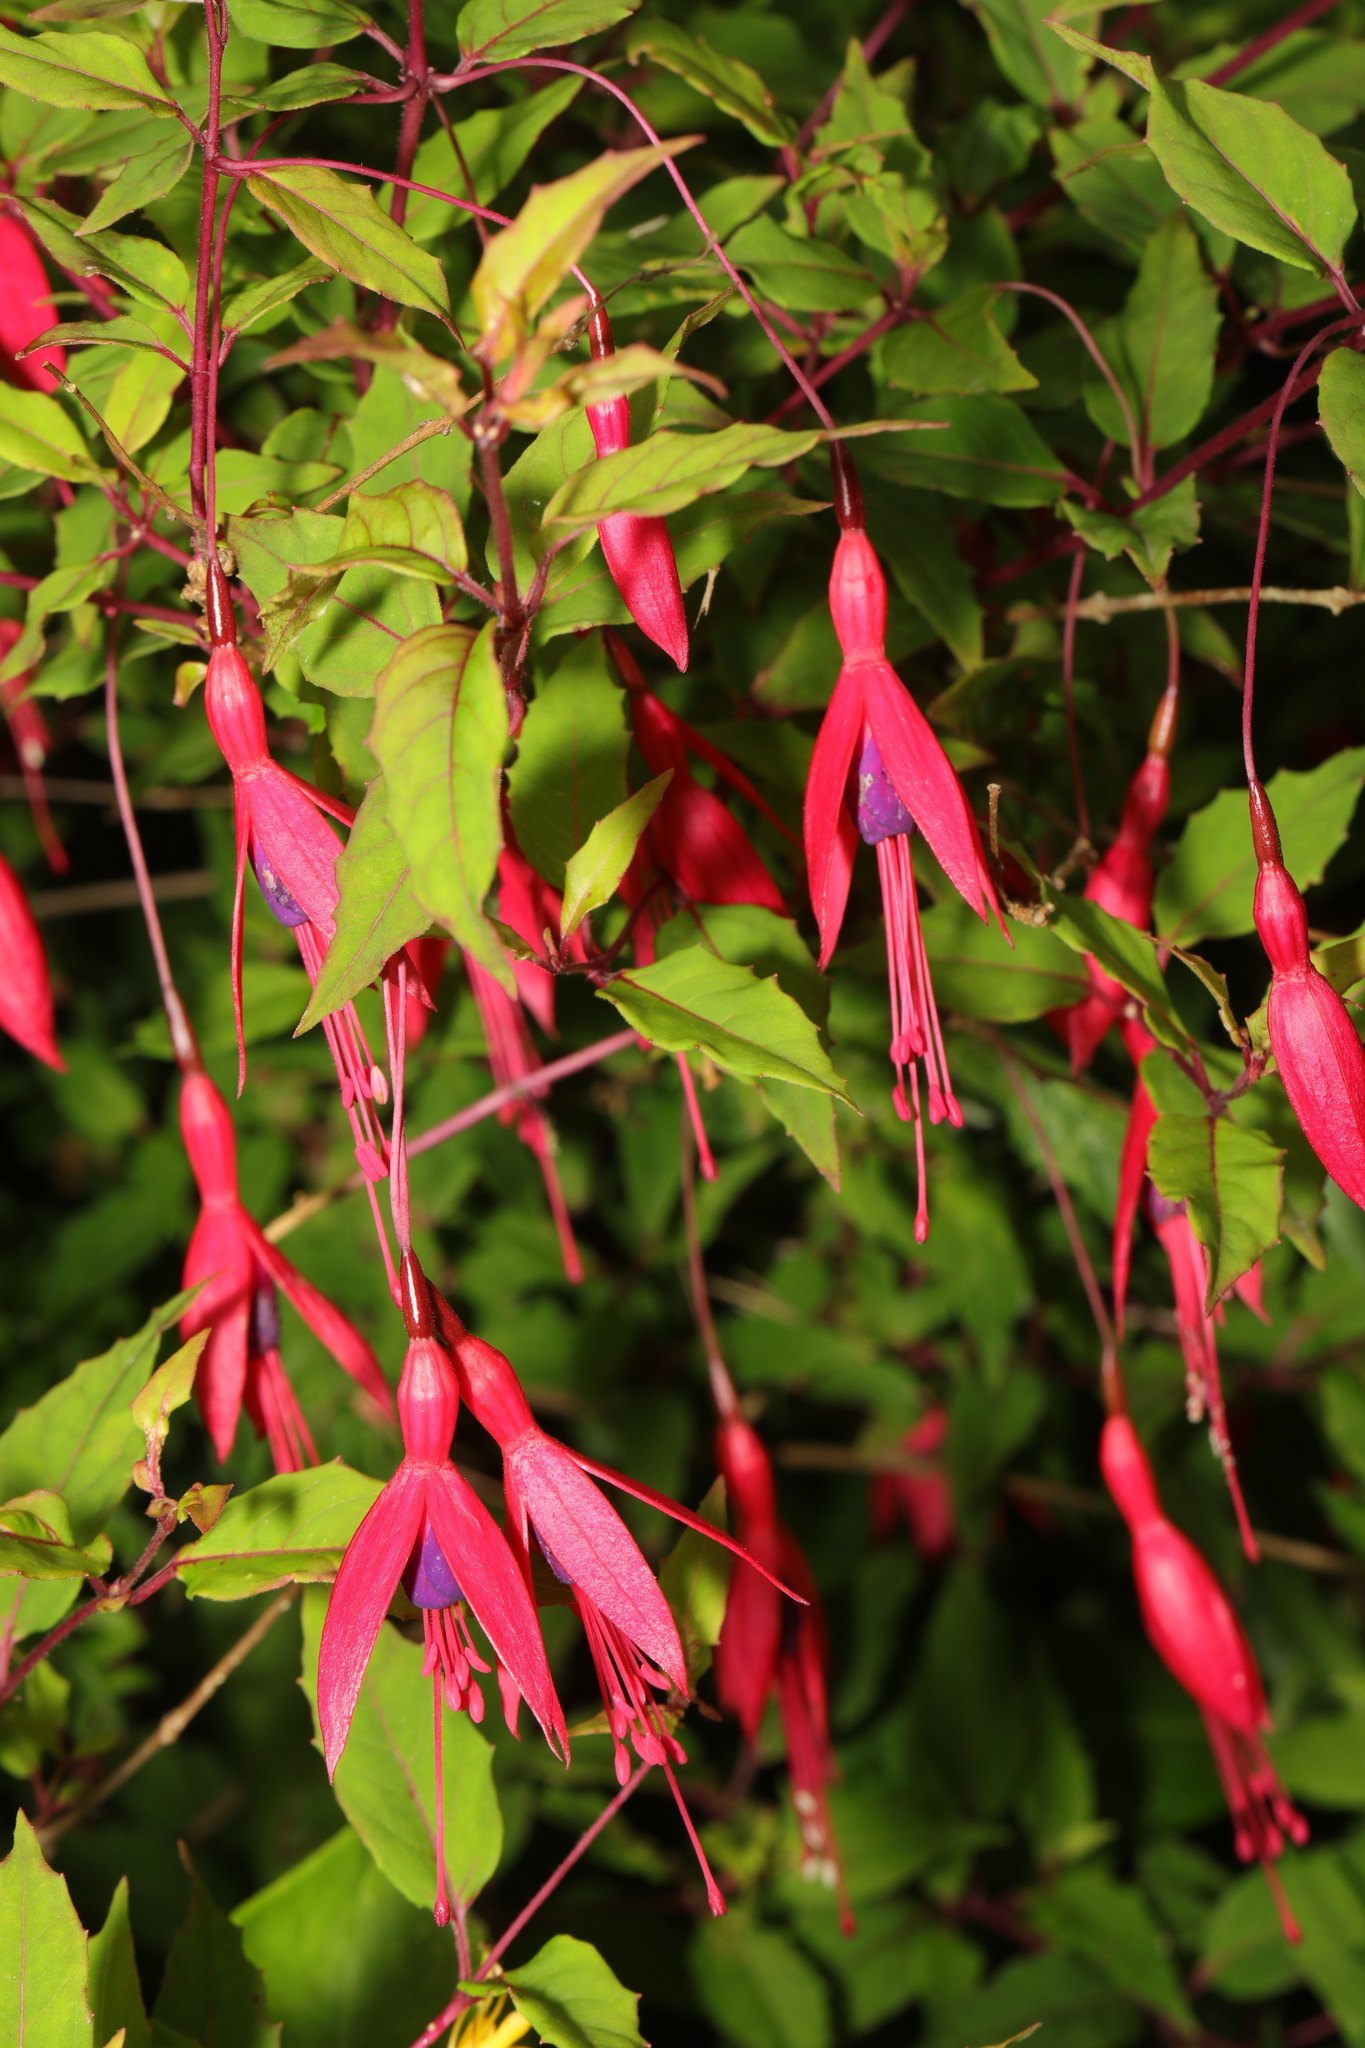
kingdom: Plantae
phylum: Tracheophyta
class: Magnoliopsida
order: Myrtales
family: Onagraceae
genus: Fuchsia
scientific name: Fuchsia magellanica
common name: Hardy fuchsia
